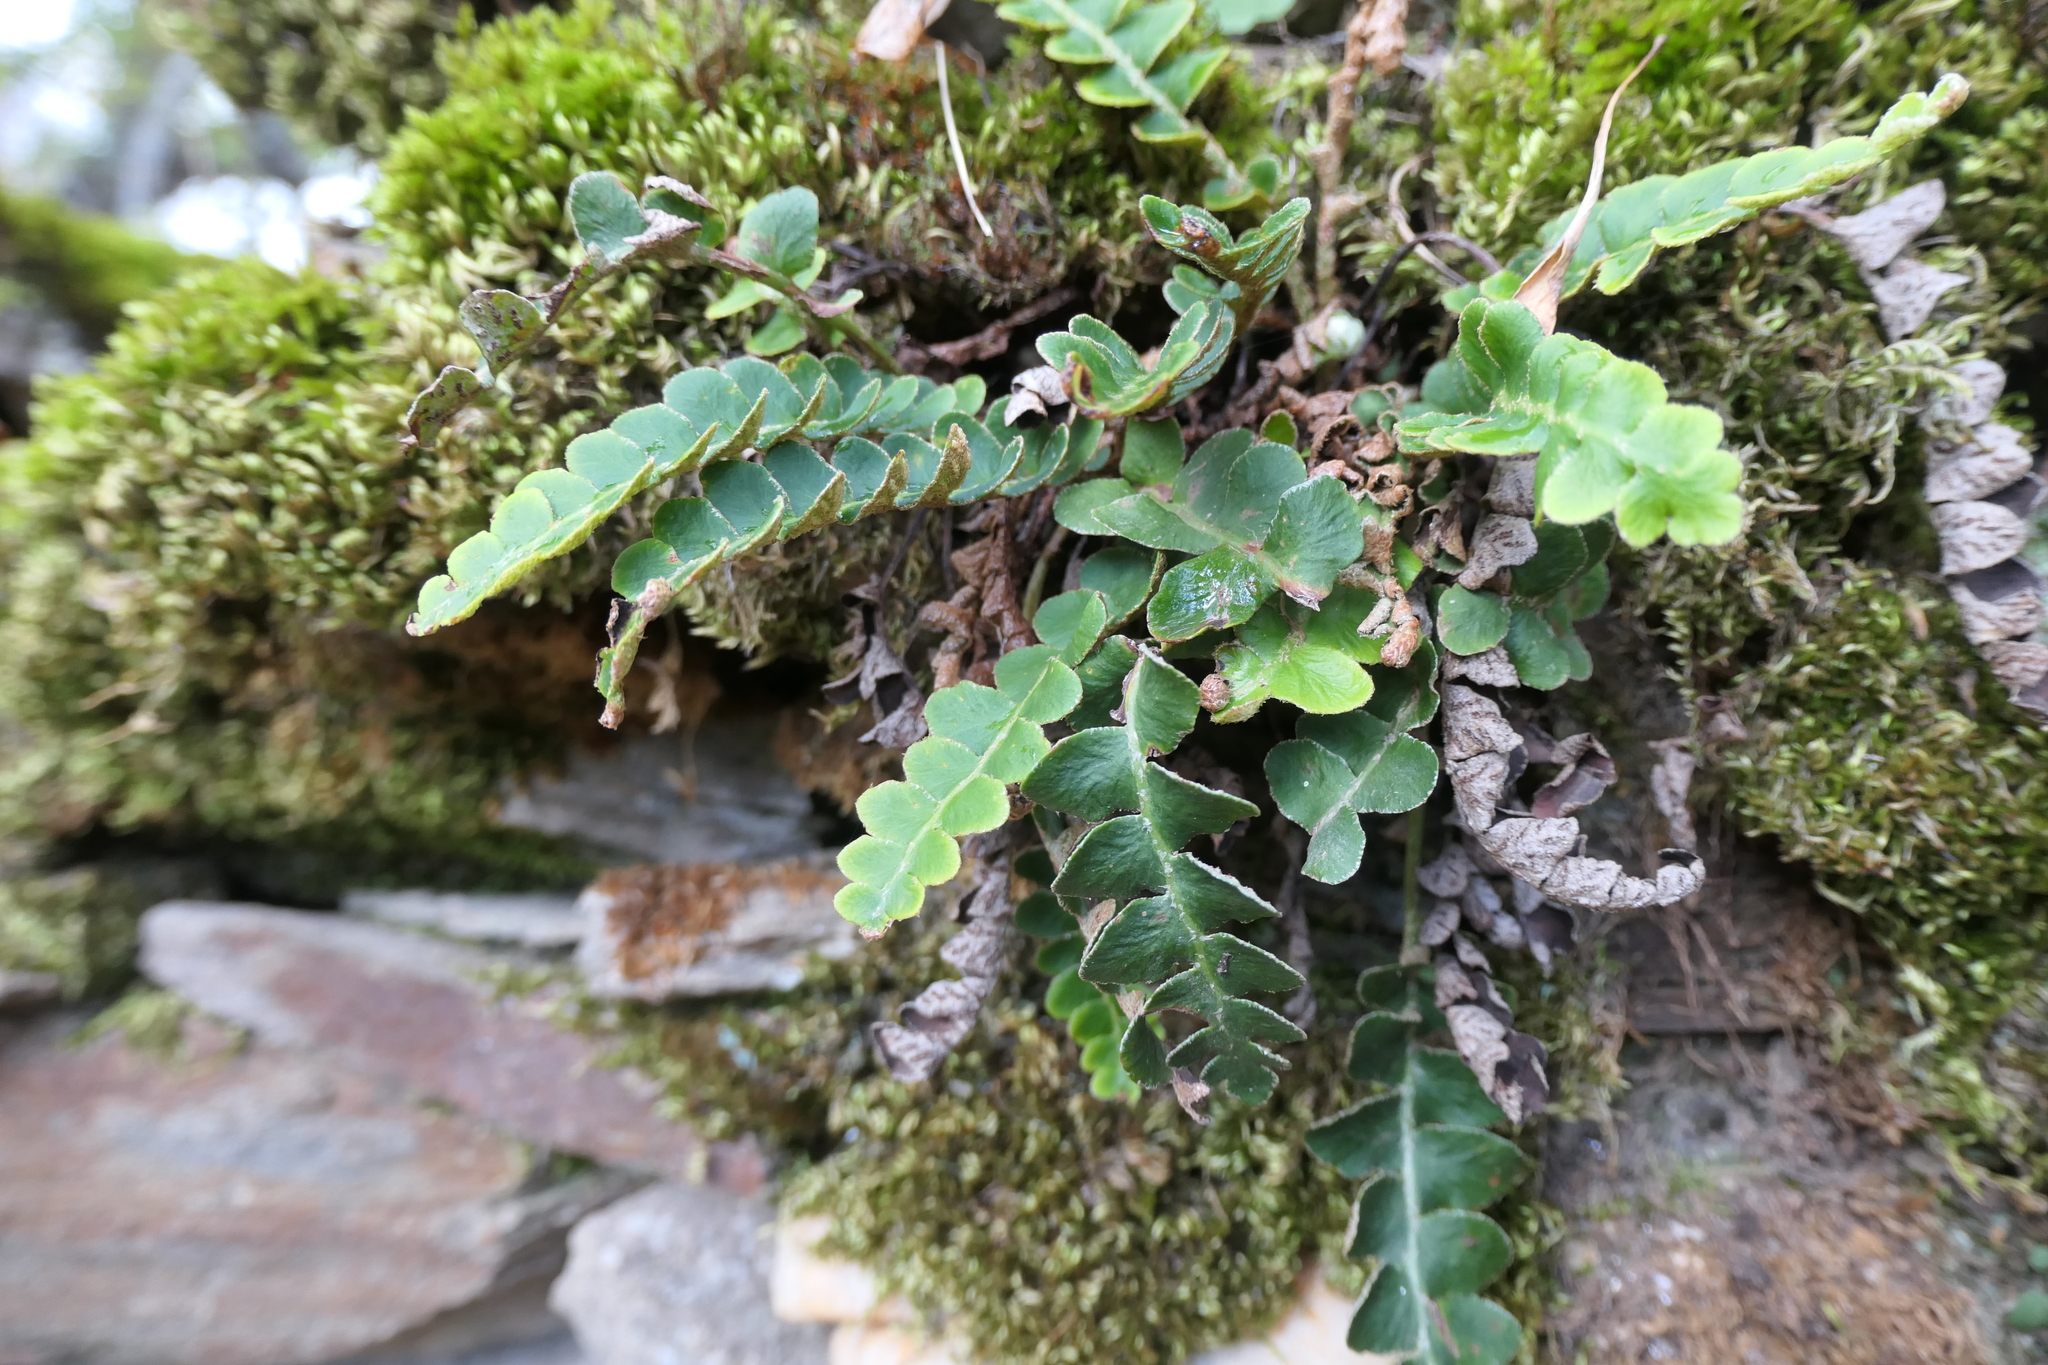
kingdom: Plantae
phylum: Tracheophyta
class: Polypodiopsida
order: Polypodiales
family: Aspleniaceae
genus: Asplenium
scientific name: Asplenium ceterach
